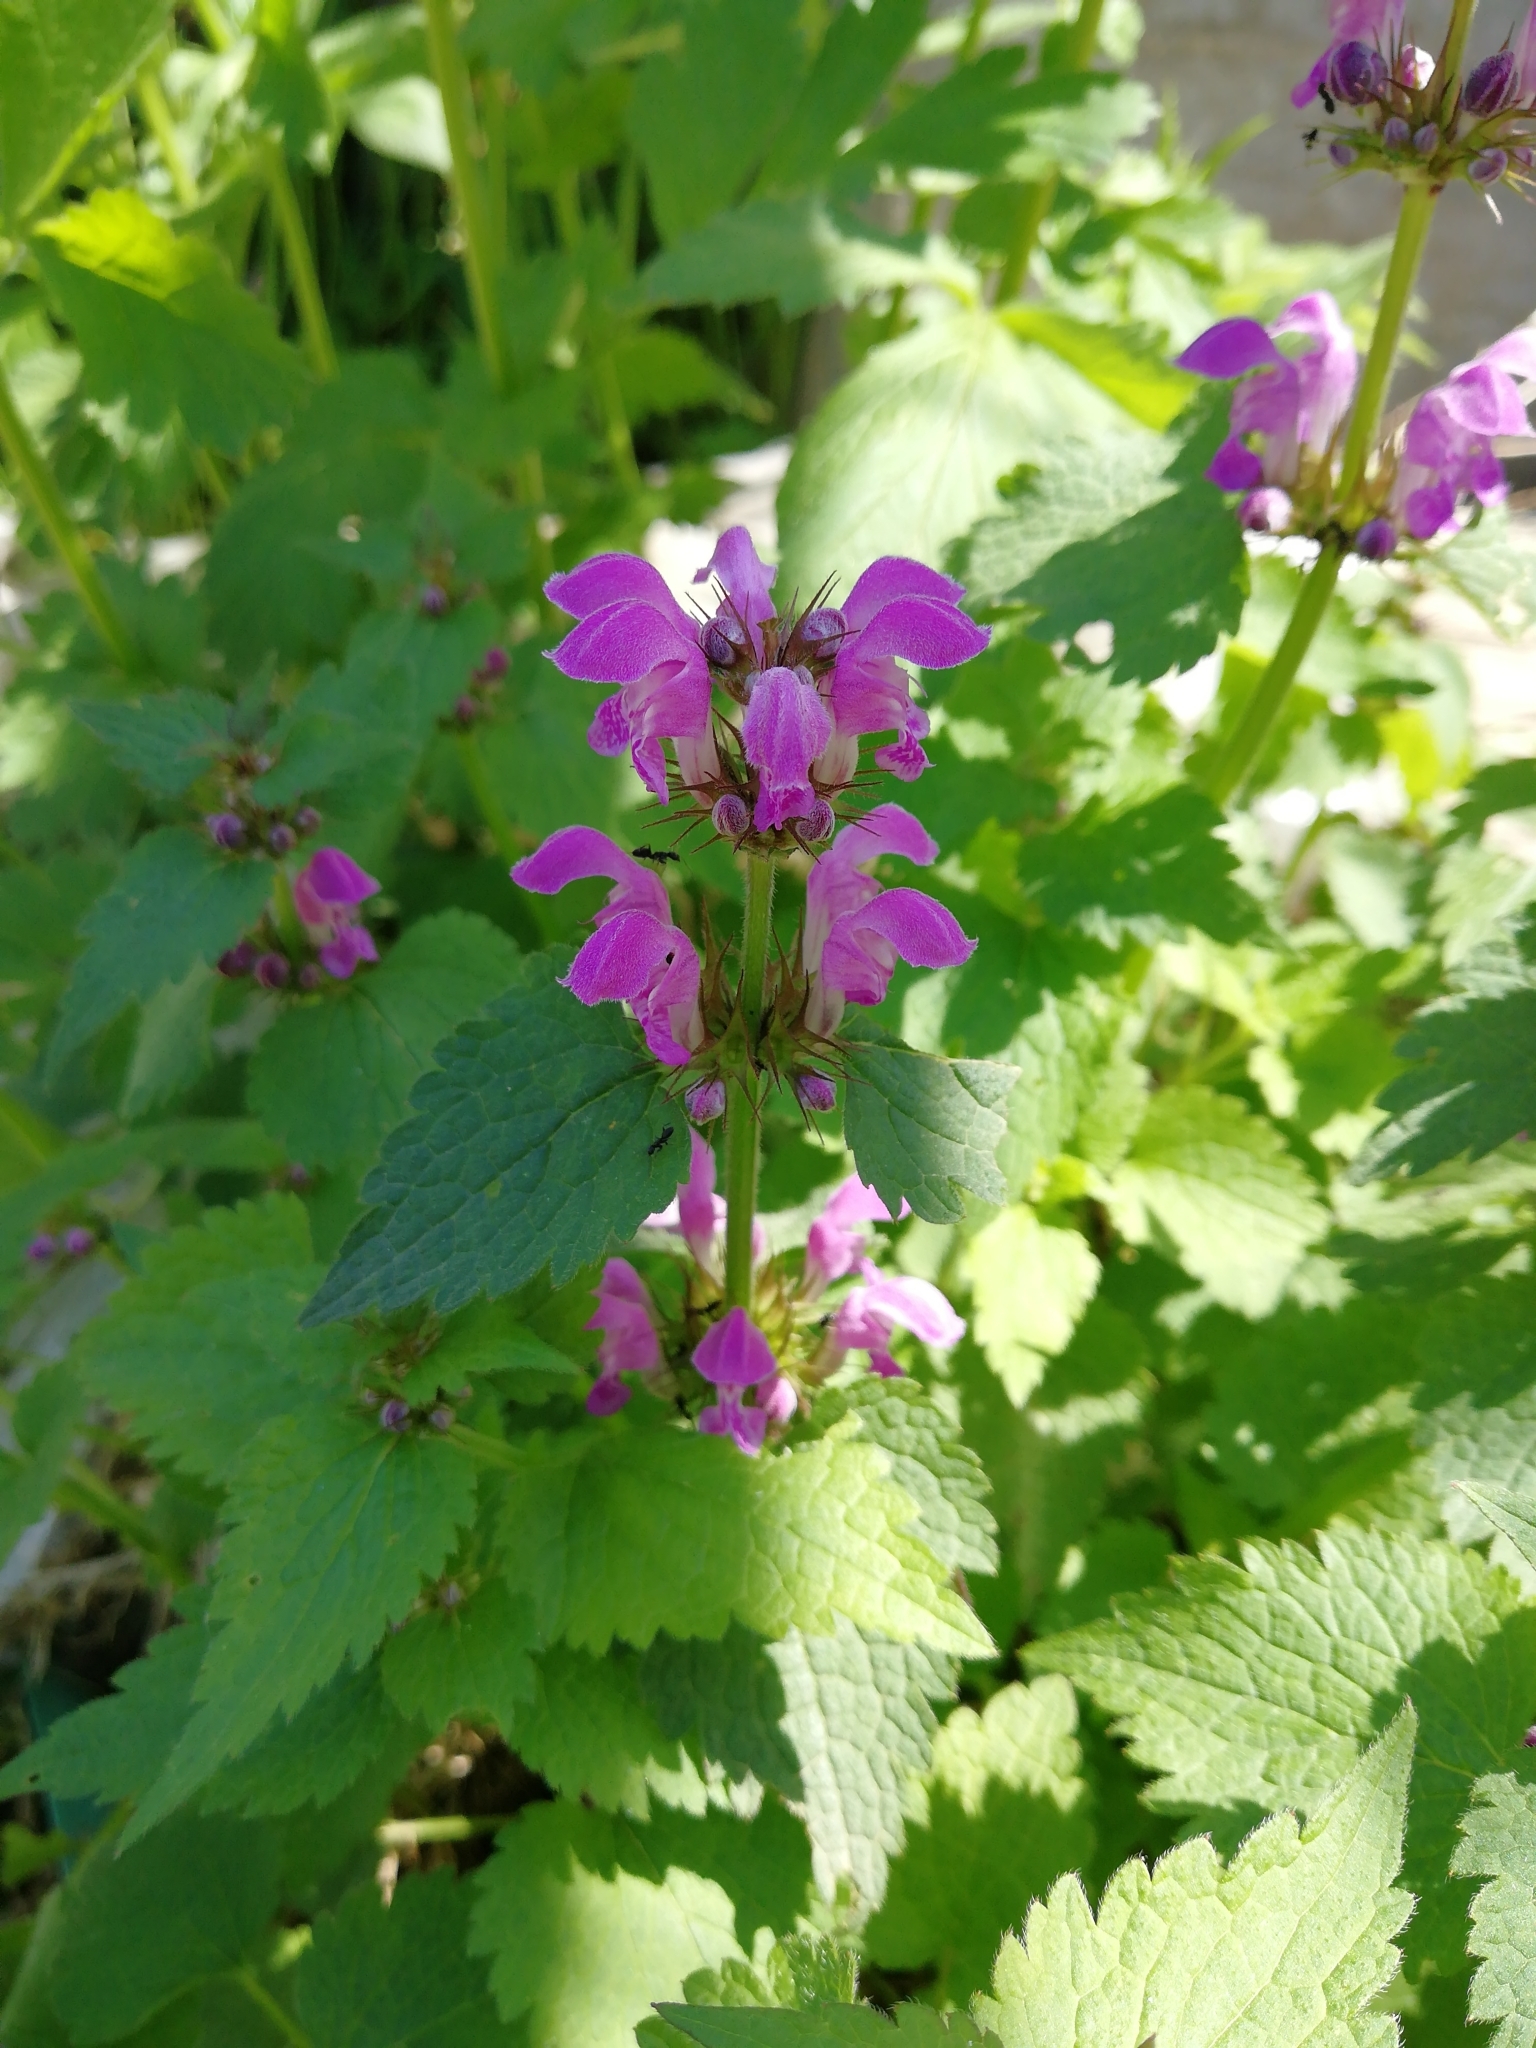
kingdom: Plantae
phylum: Tracheophyta
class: Magnoliopsida
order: Lamiales
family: Lamiaceae
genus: Lamium
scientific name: Lamium maculatum
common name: Spotted dead-nettle
